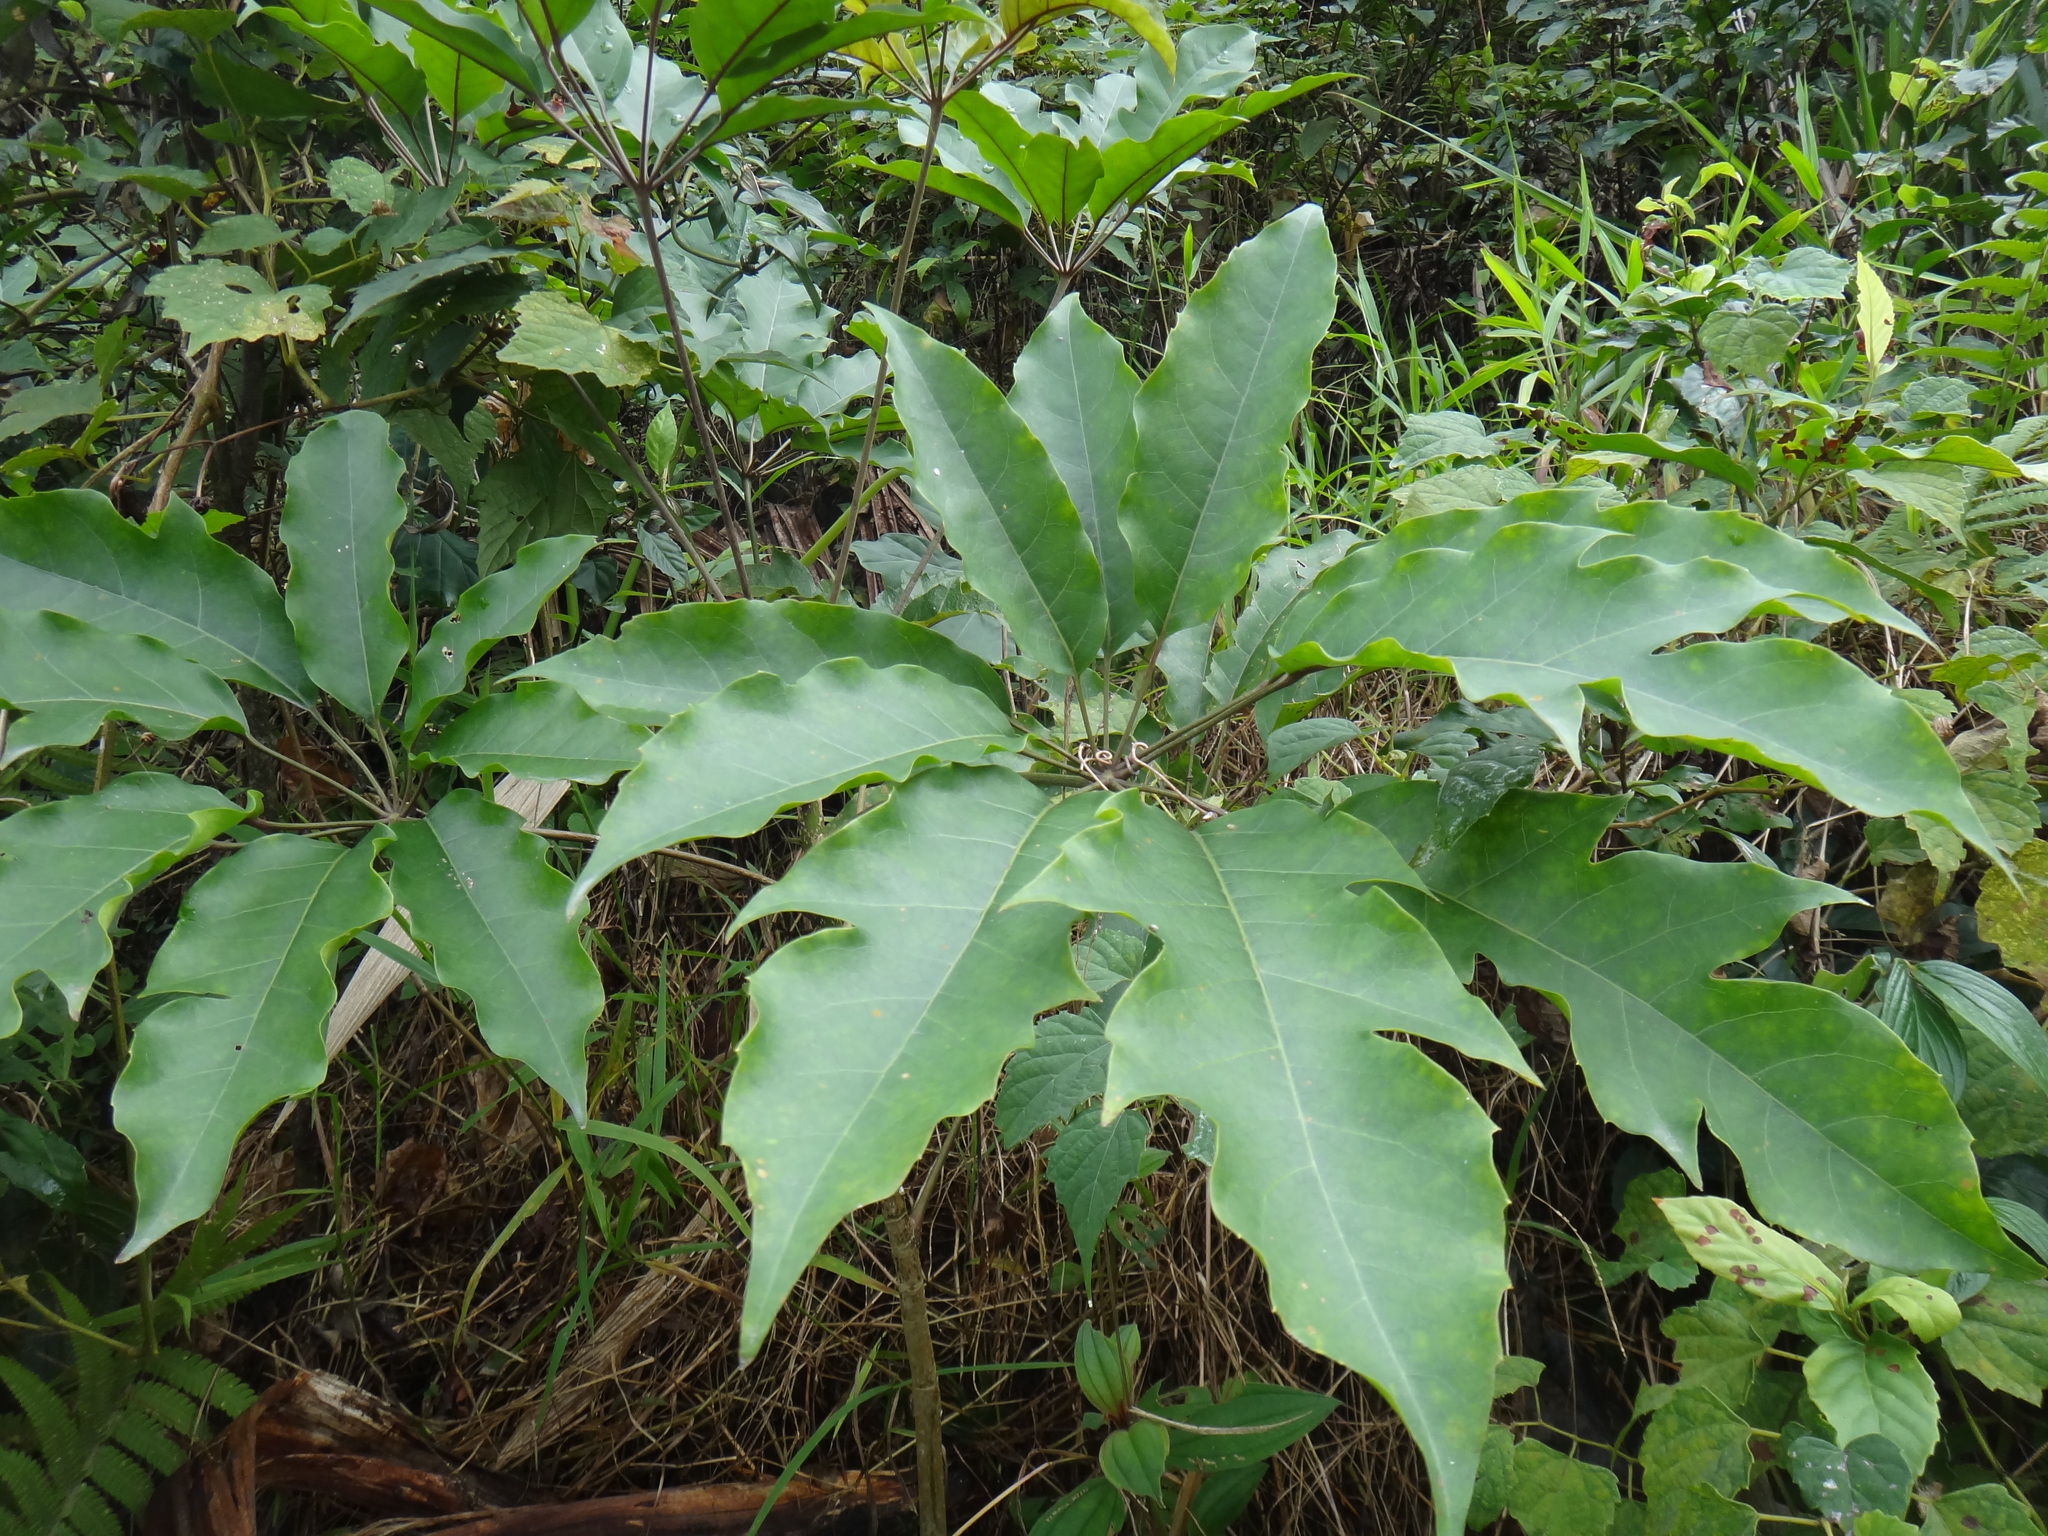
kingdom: Plantae
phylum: Tracheophyta
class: Magnoliopsida
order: Apiales
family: Araliaceae
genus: Heptapleurum
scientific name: Heptapleurum heptaphyllum
